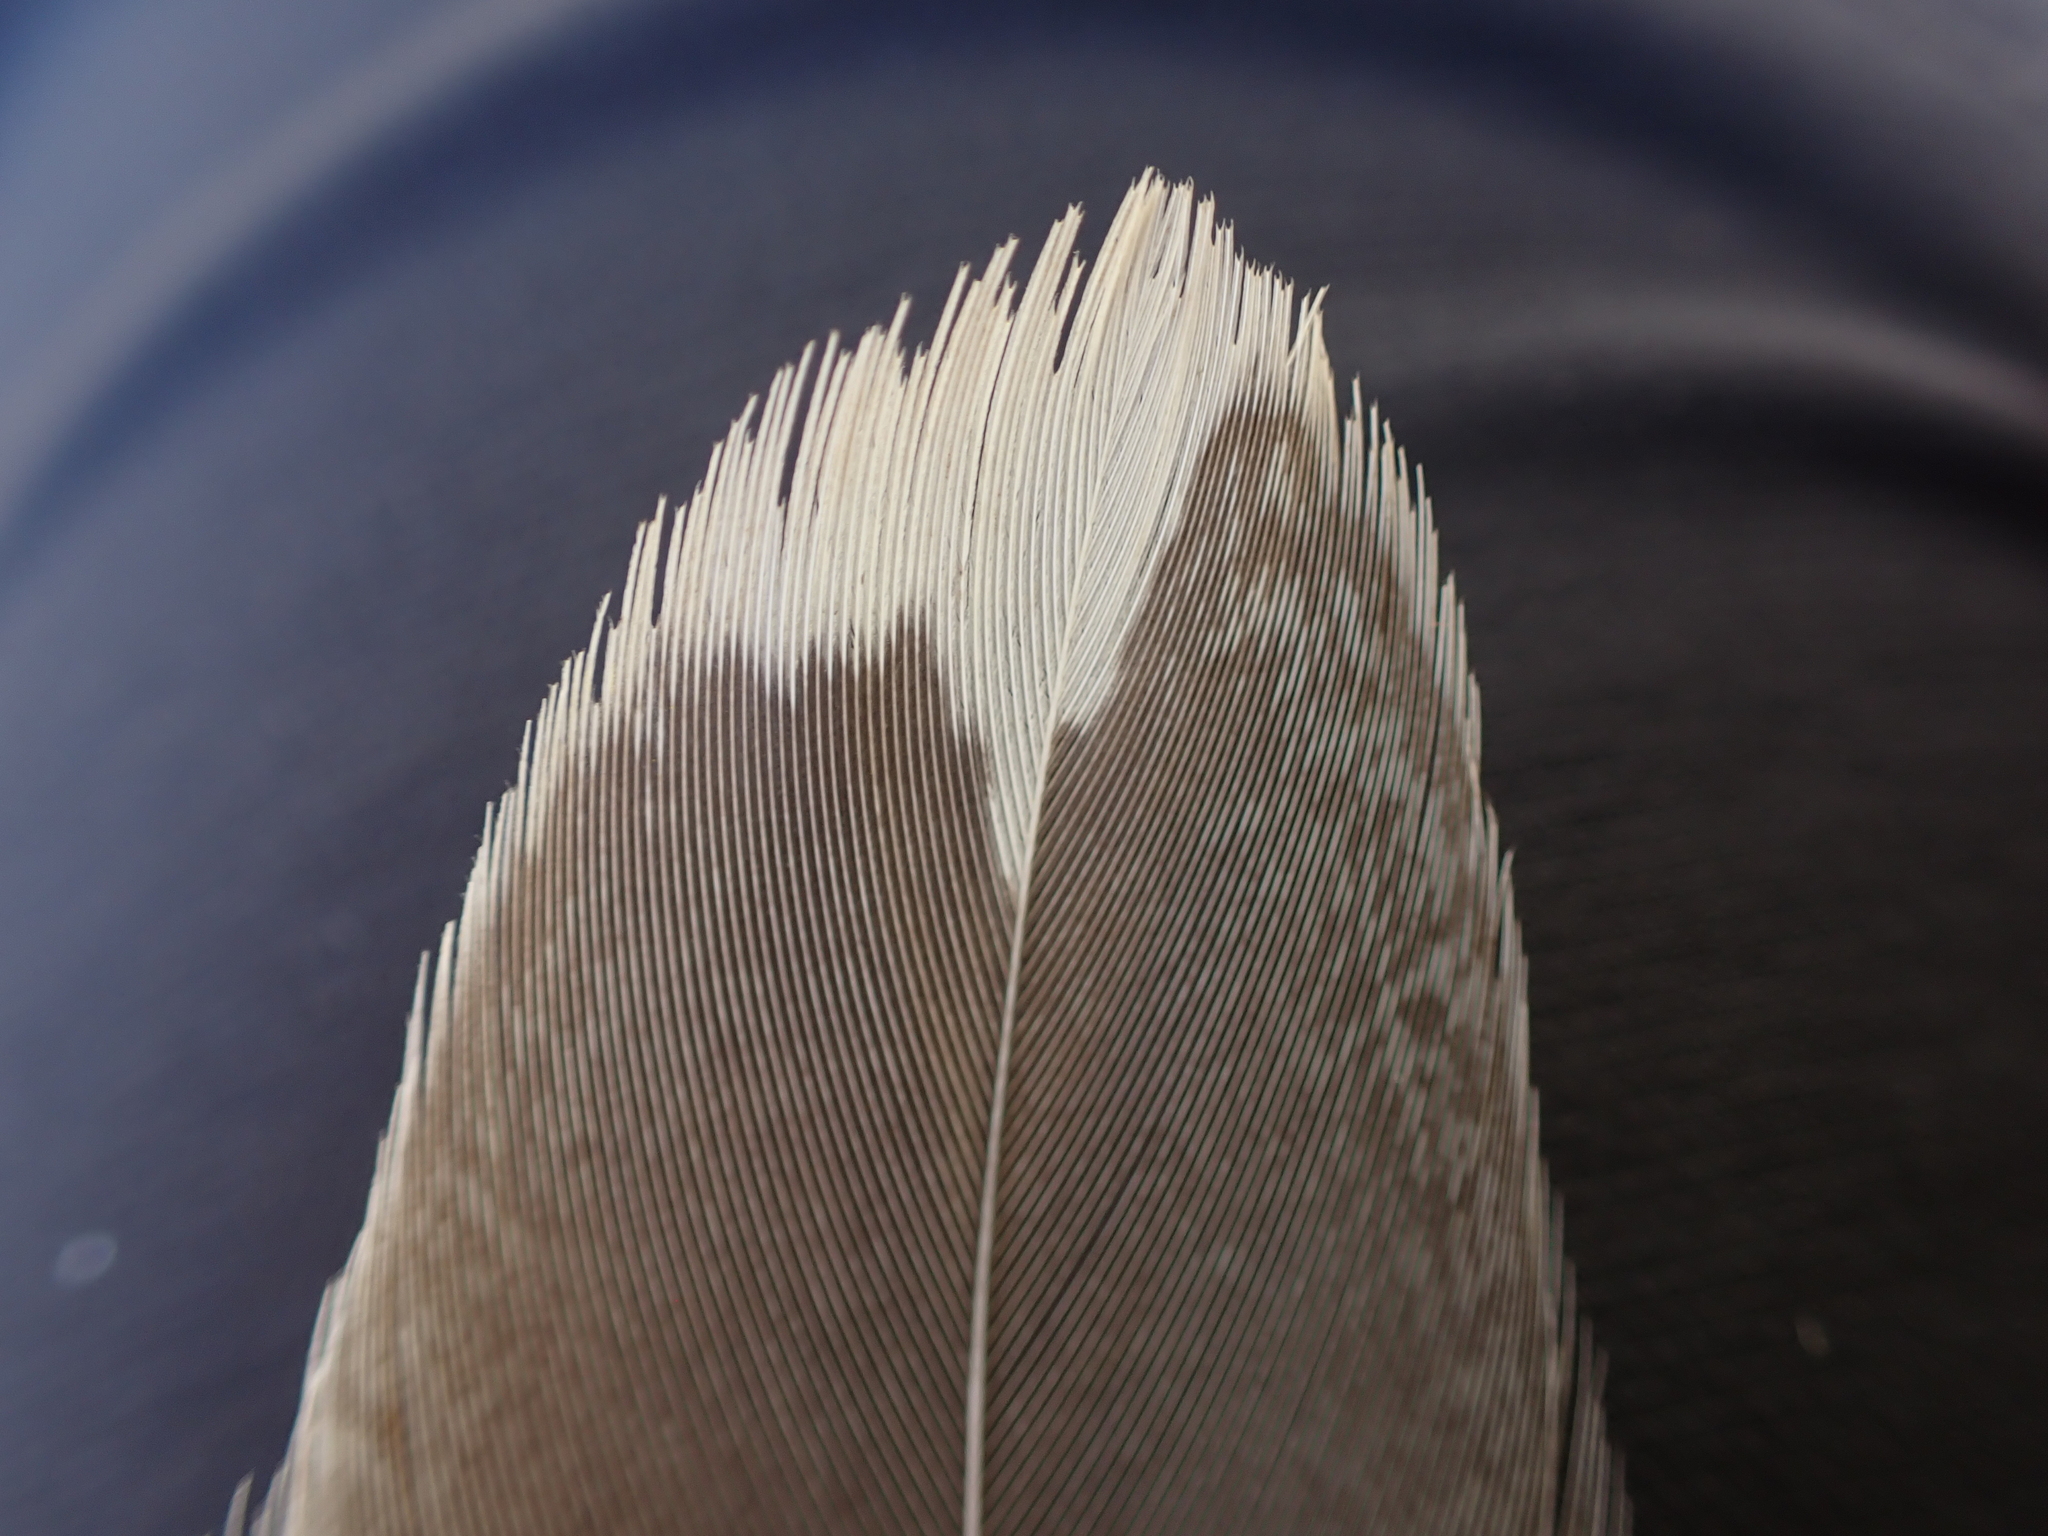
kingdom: Animalia
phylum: Chordata
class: Aves
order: Galliformes
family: Phasianidae
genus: Dendragapus
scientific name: Dendragapus obscurus
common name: Dusky grouse
